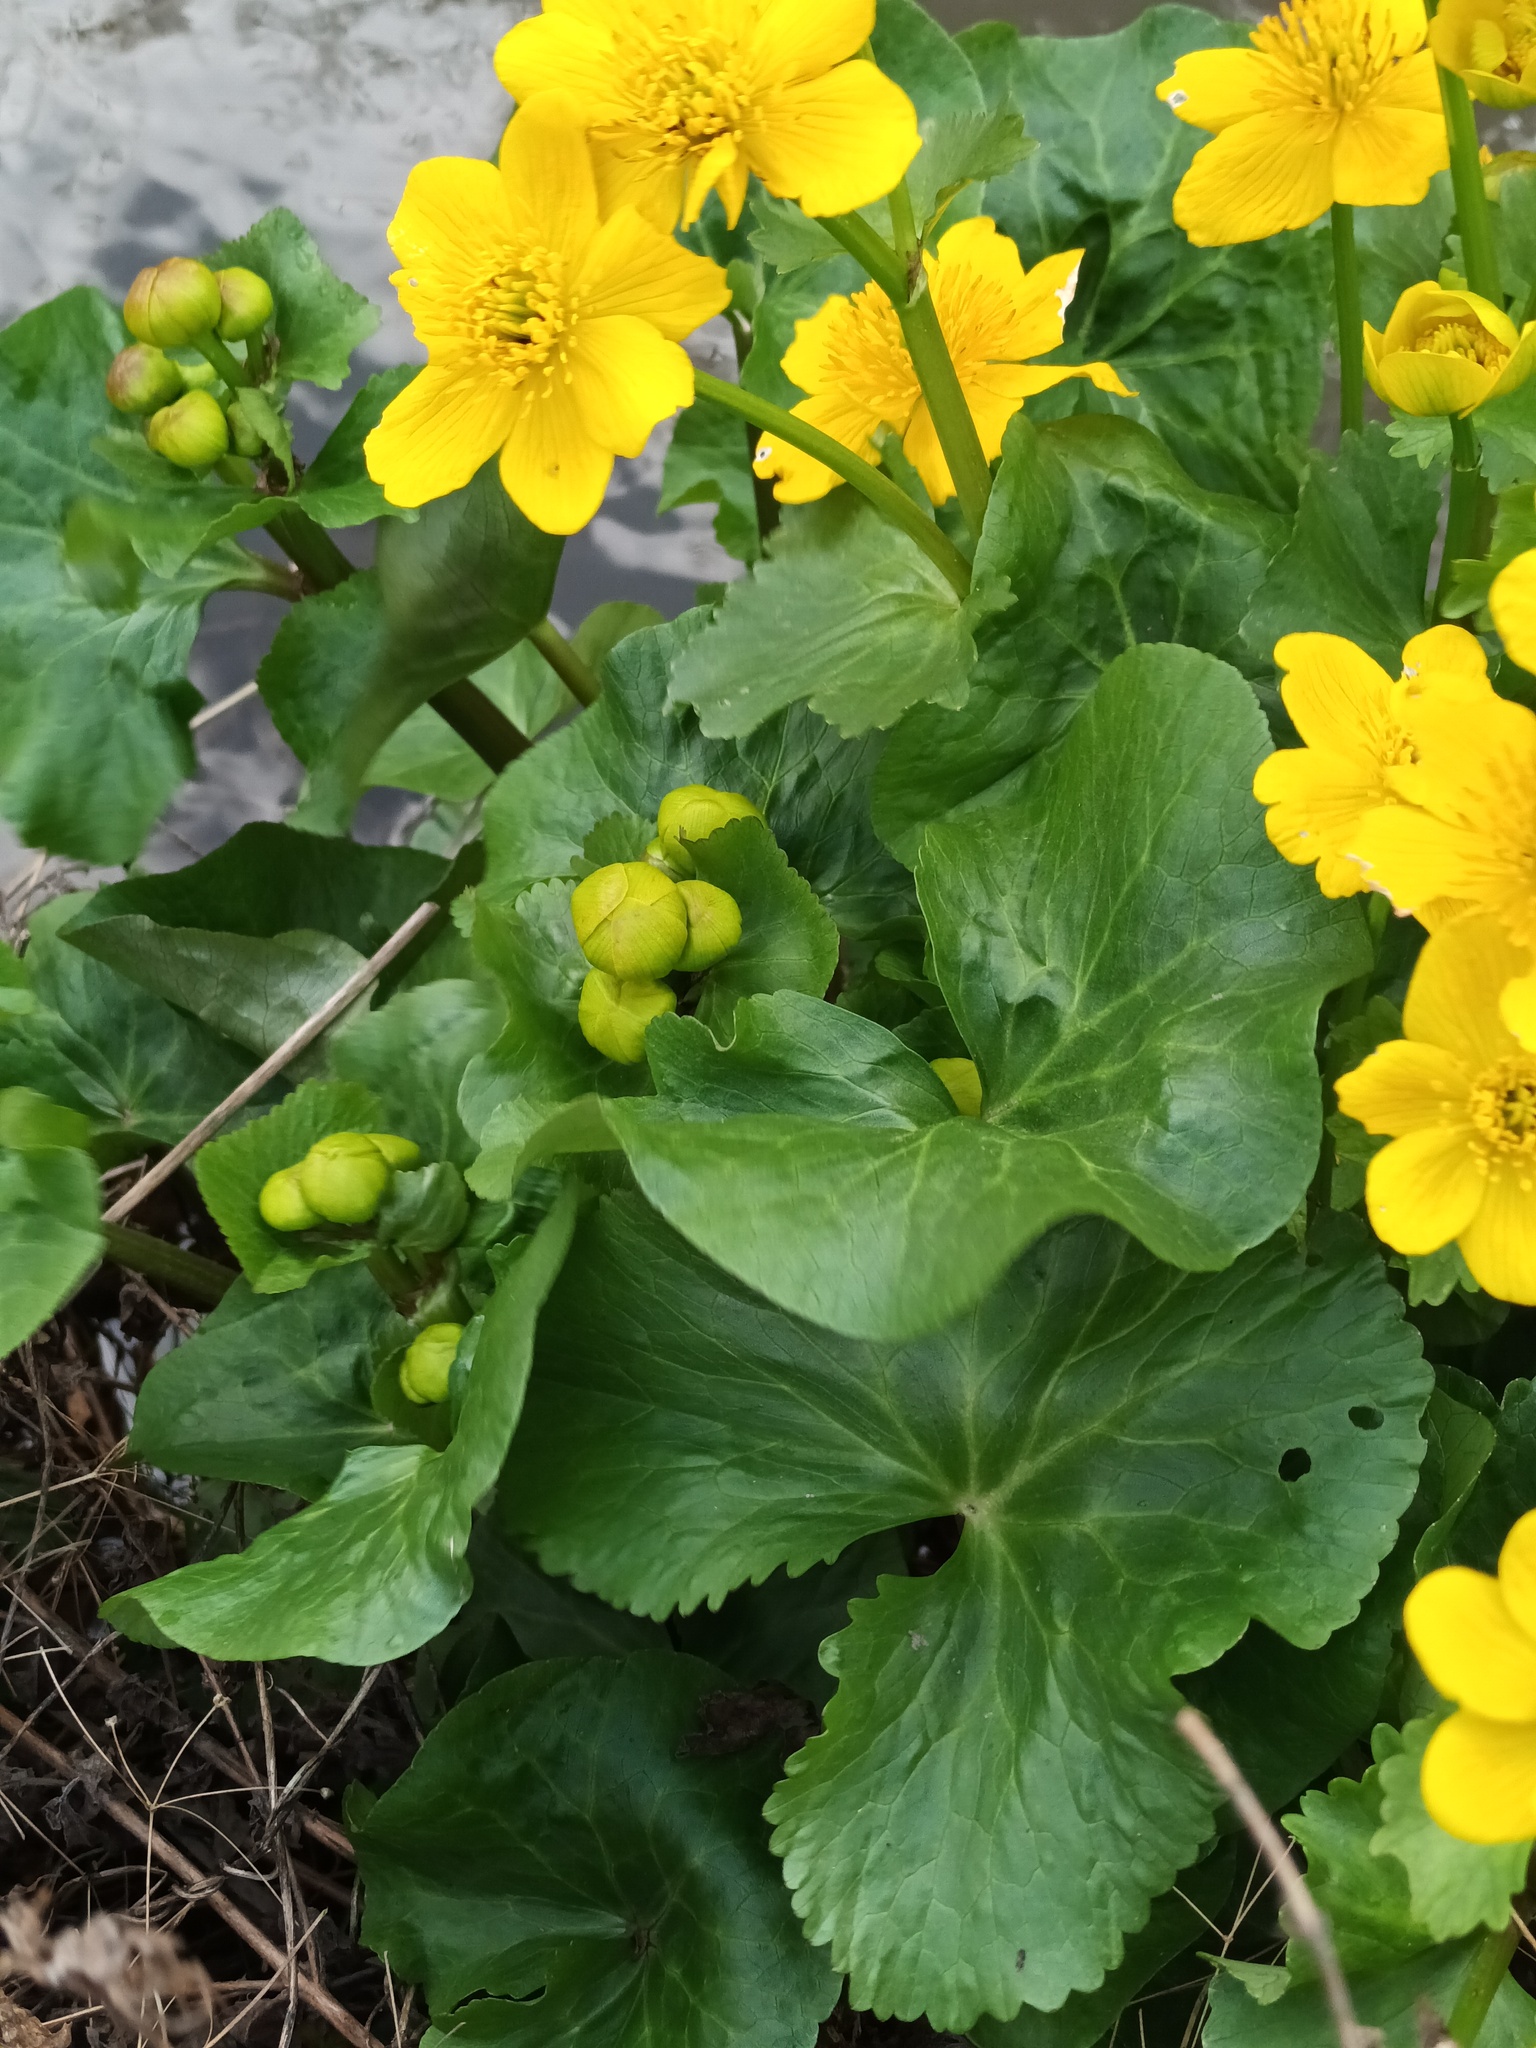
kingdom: Plantae
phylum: Tracheophyta
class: Magnoliopsida
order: Ranunculales
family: Ranunculaceae
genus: Caltha
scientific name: Caltha palustris
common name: Marsh marigold
